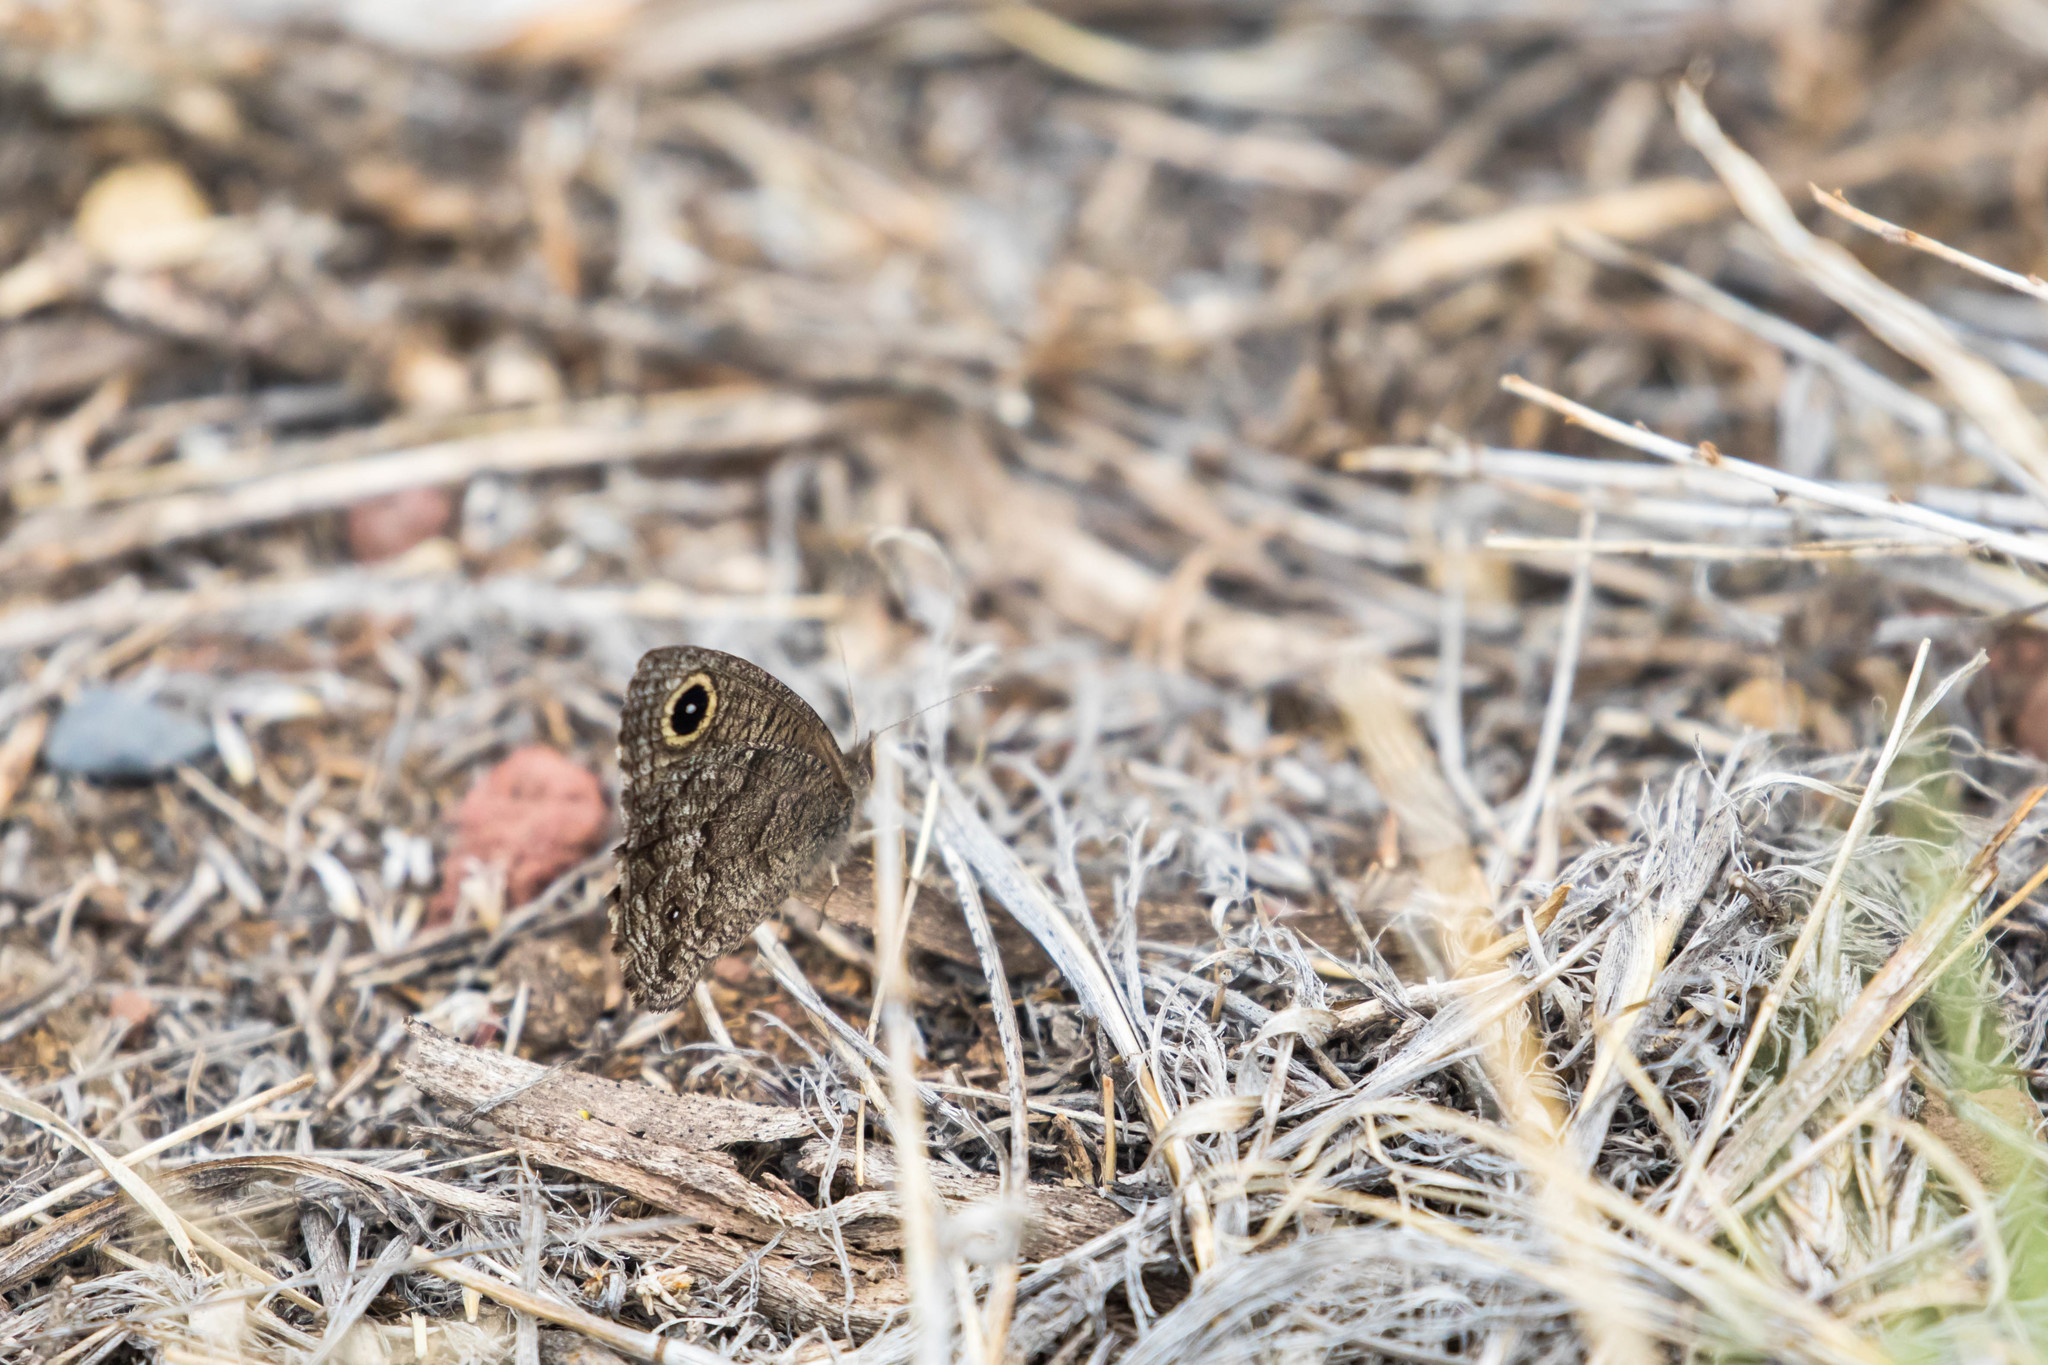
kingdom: Animalia
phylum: Arthropoda
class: Insecta
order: Lepidoptera
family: Nymphalidae
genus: Cercyonis
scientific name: Cercyonis sthenele
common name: Great basin wood-nymph
